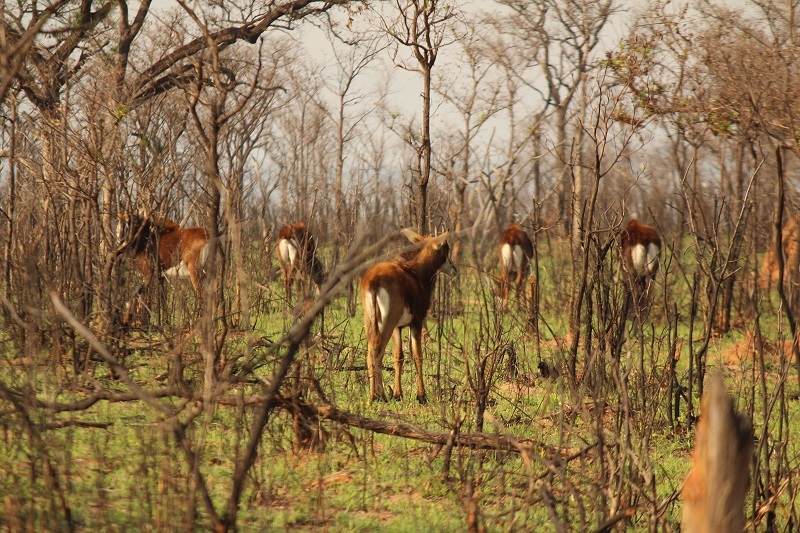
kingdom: Animalia
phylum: Chordata
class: Mammalia
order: Artiodactyla
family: Bovidae
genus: Hippotragus
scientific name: Hippotragus niger
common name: Sable antelope
